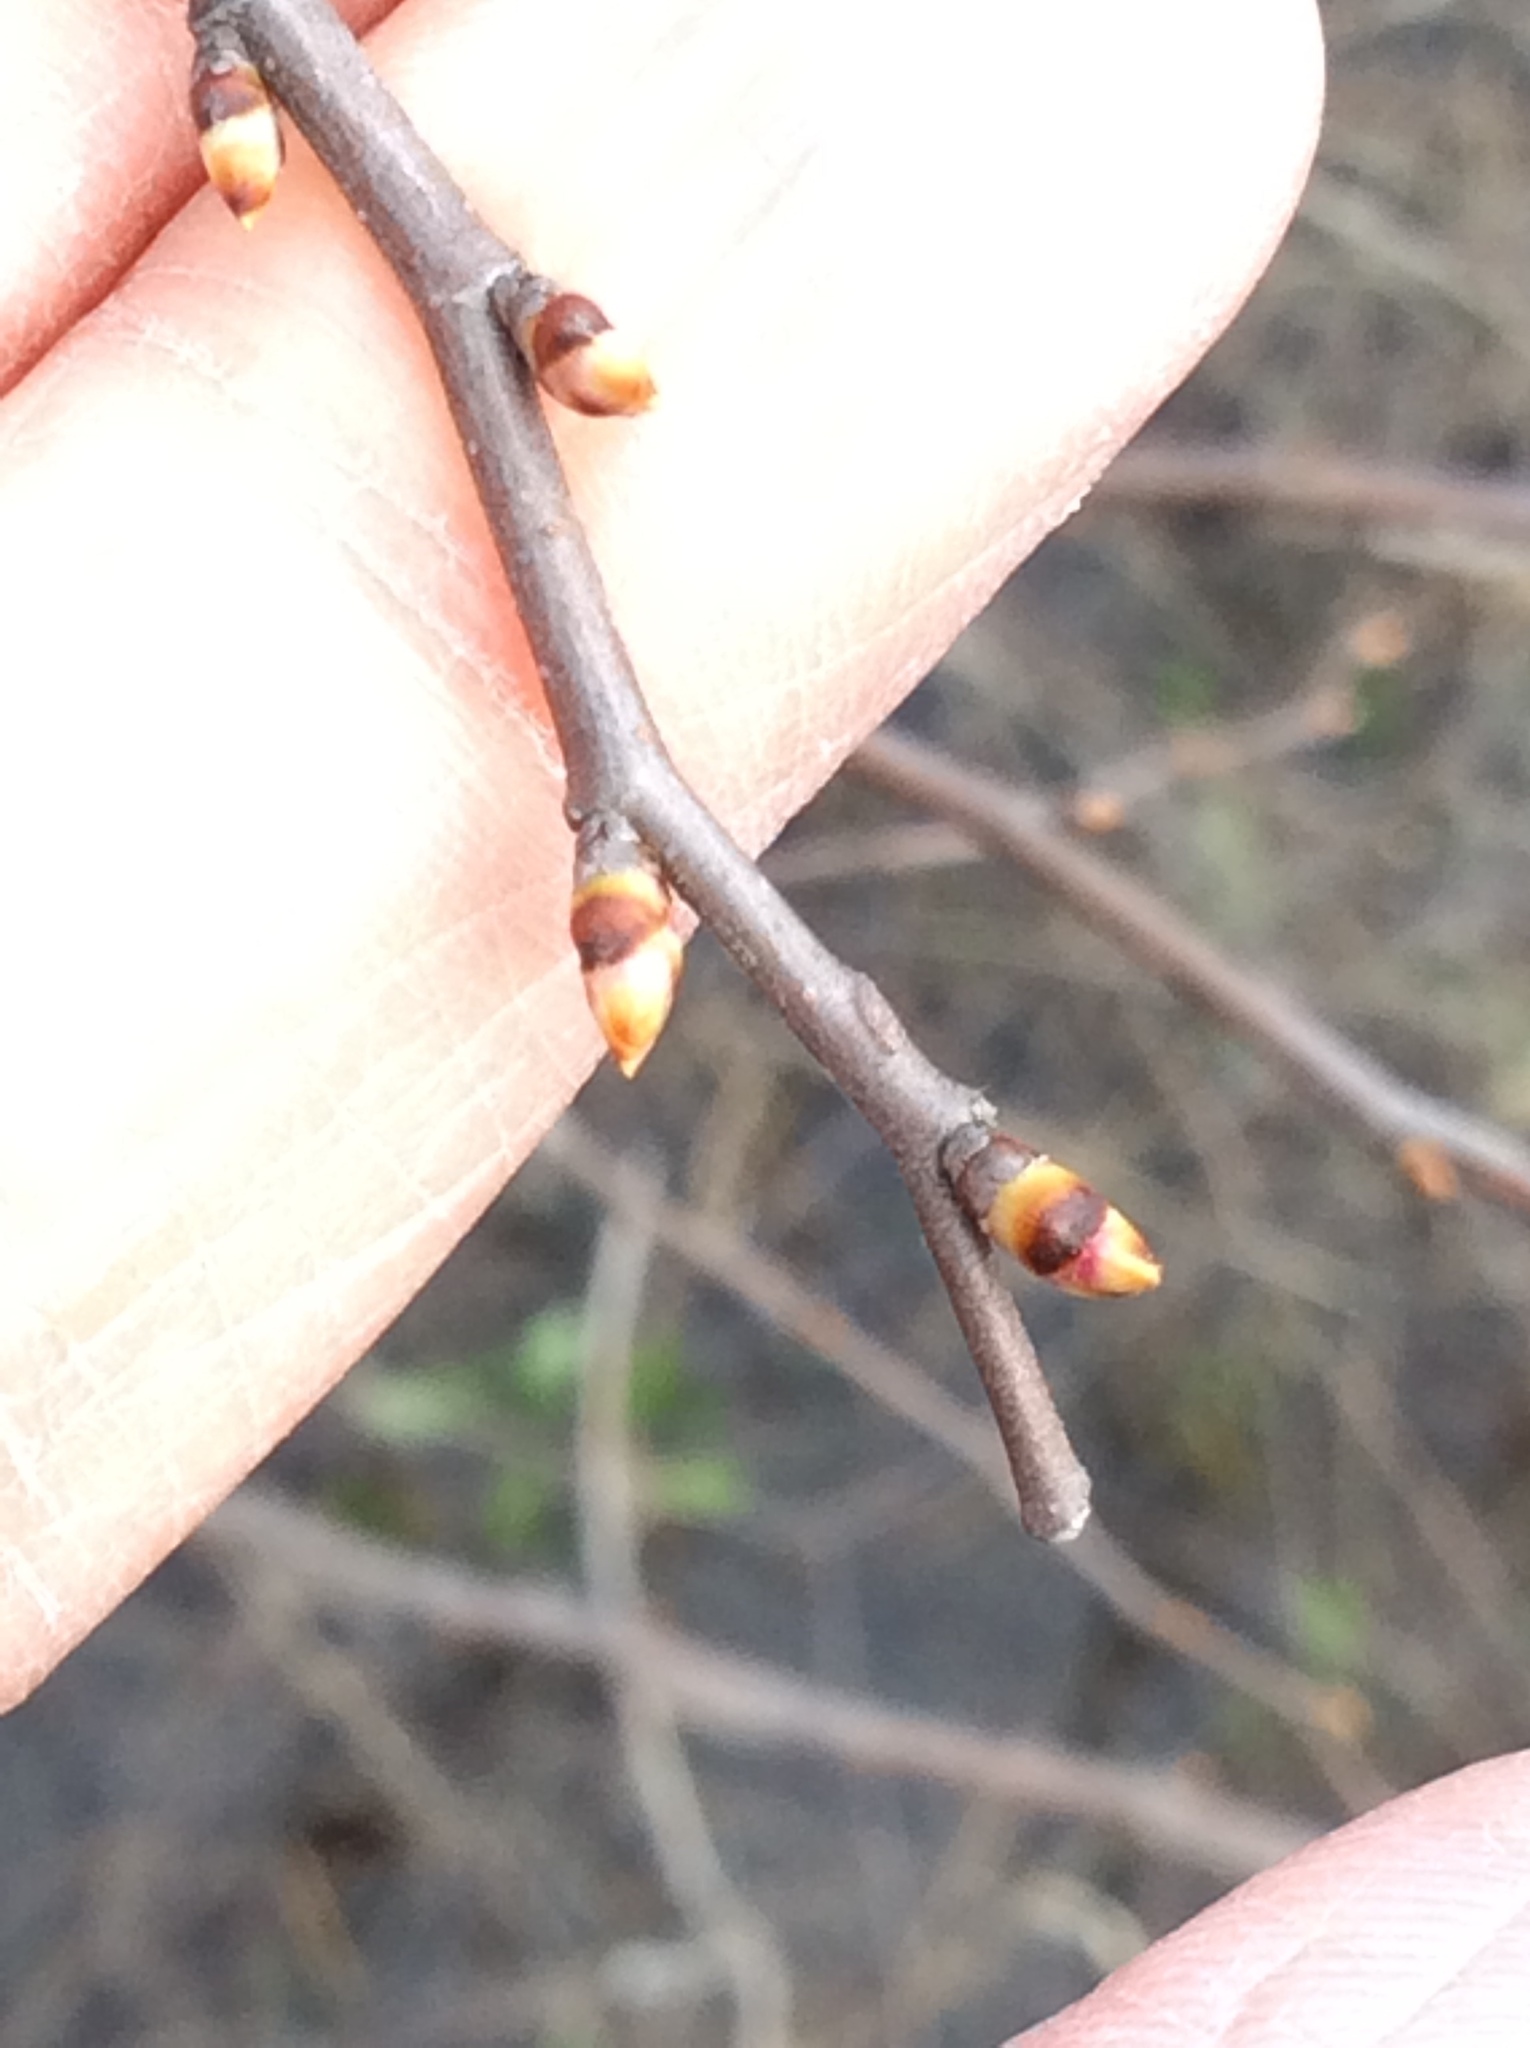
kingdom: Plantae
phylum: Tracheophyta
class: Magnoliopsida
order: Rosales
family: Ulmaceae
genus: Ulmus
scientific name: Ulmus crassifolia
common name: Basket elm
